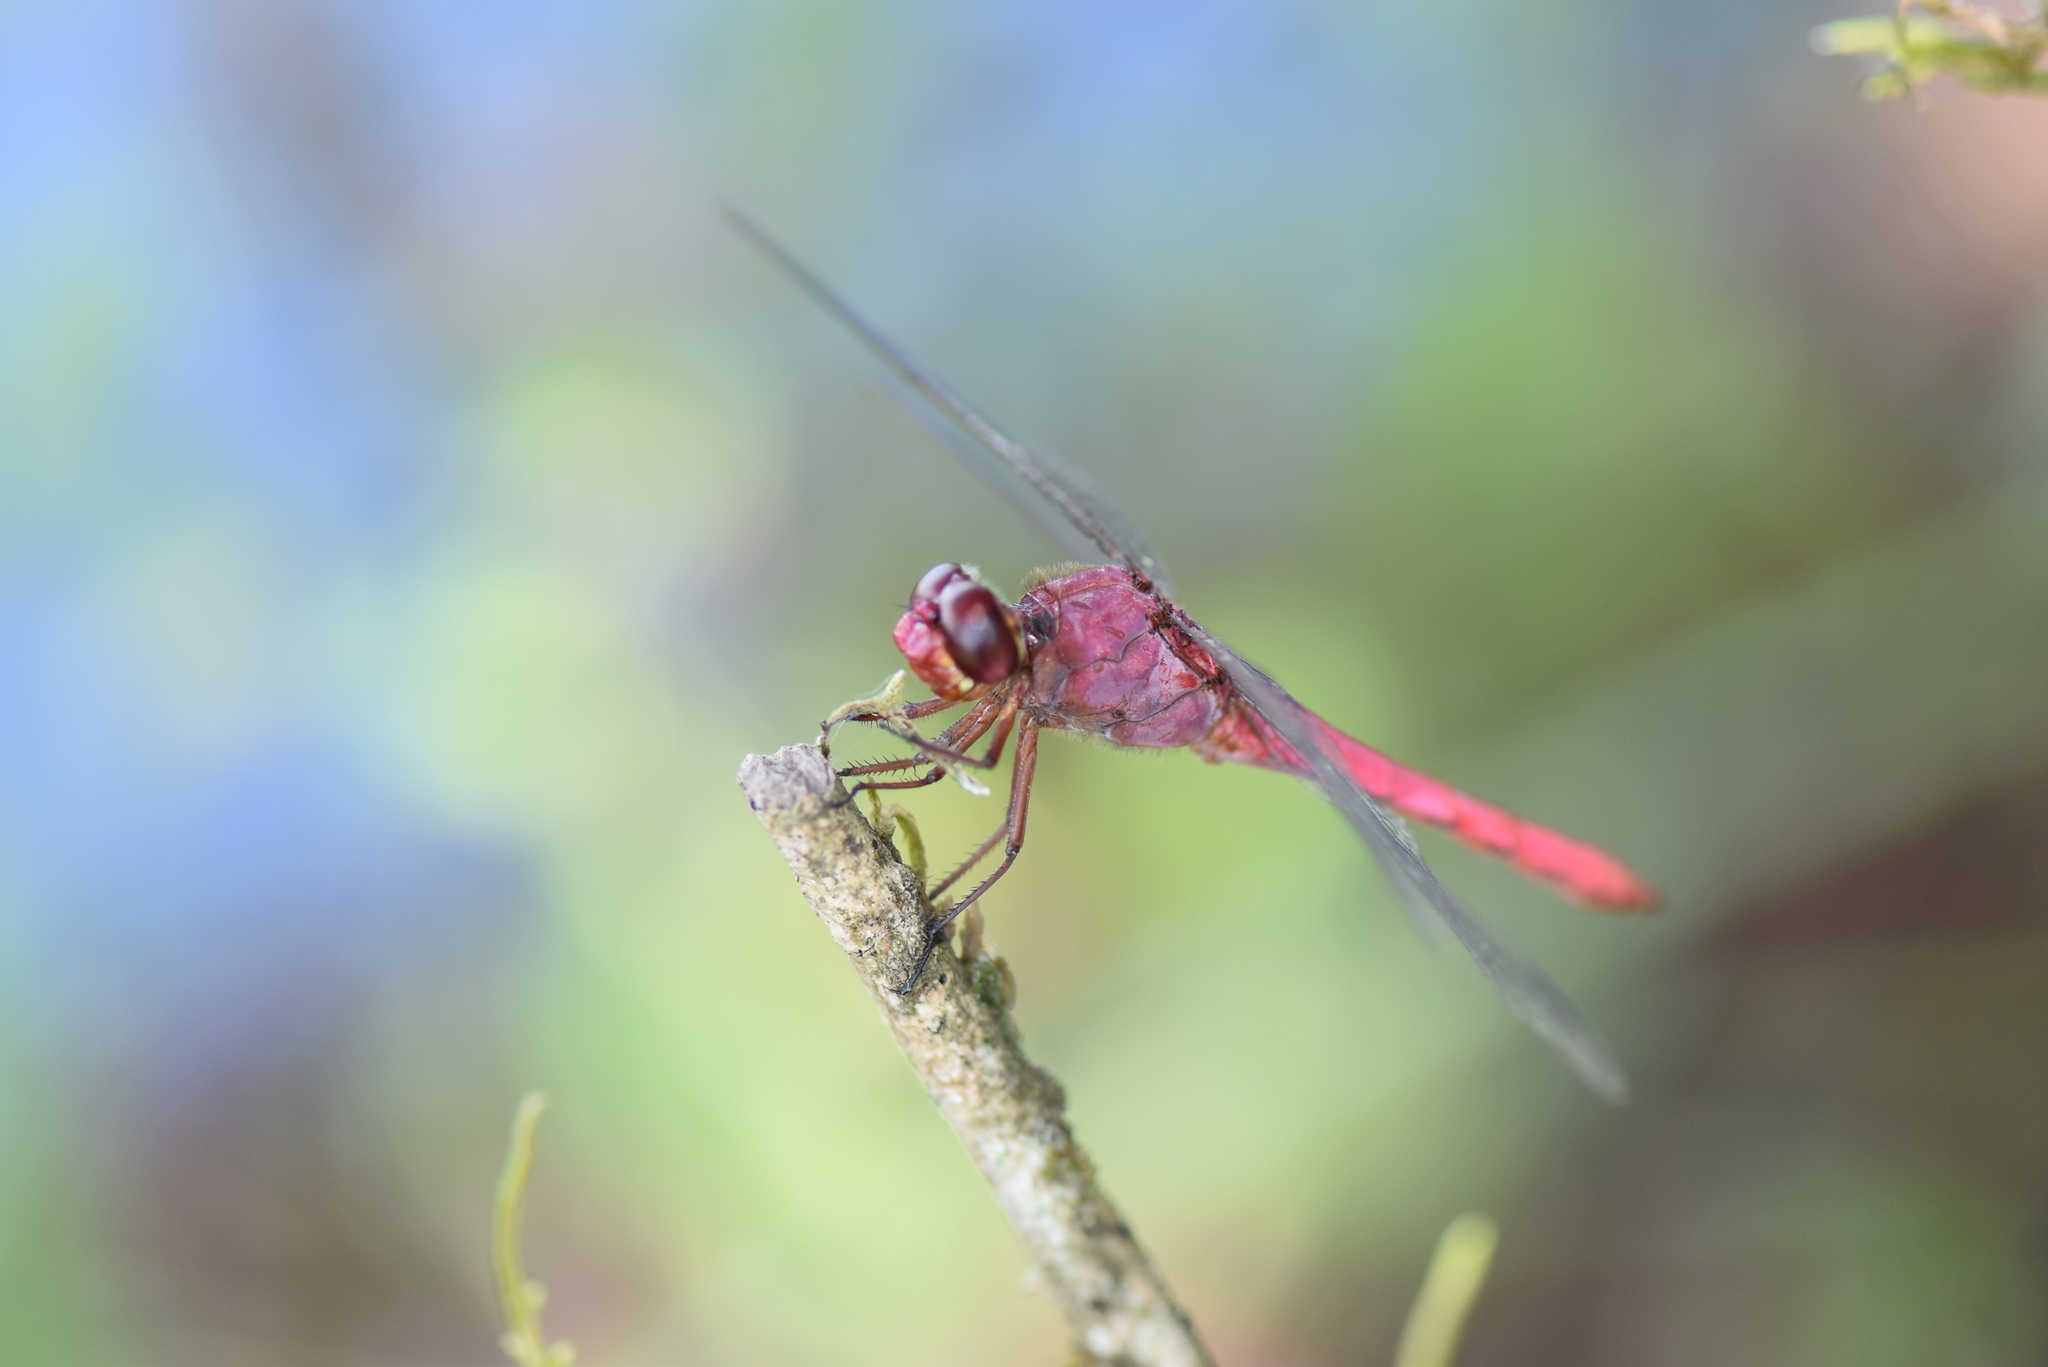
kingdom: Animalia
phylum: Arthropoda
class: Insecta
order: Odonata
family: Libellulidae
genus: Orthemis
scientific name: Orthemis discolor
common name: Carmine skimmer
